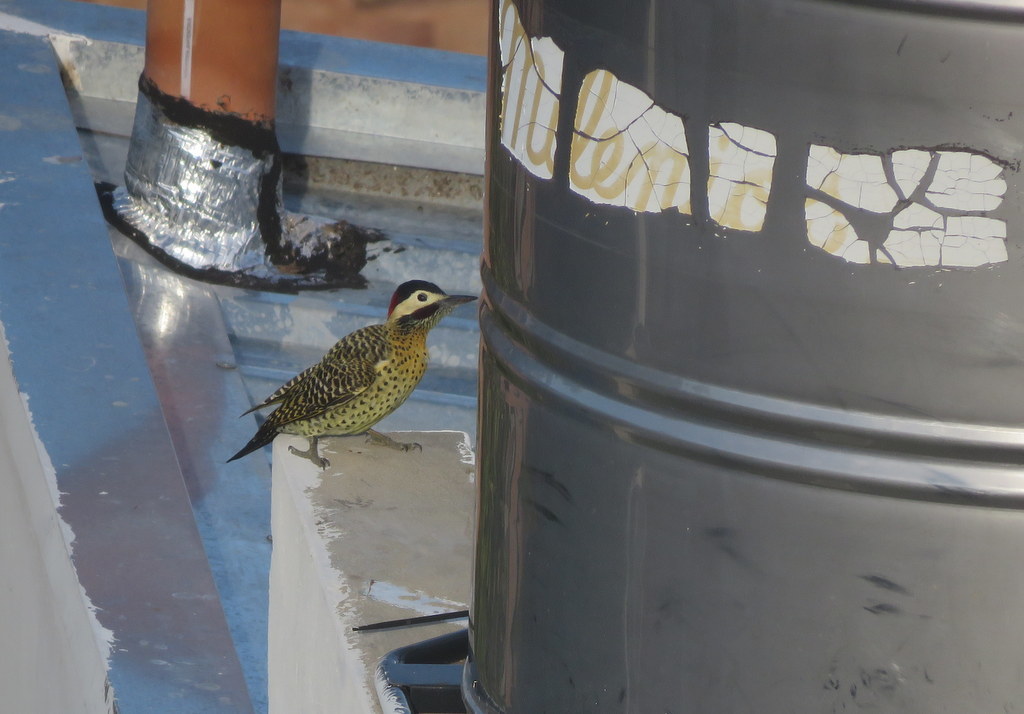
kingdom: Animalia
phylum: Chordata
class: Aves
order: Piciformes
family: Picidae
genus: Colaptes
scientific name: Colaptes melanochloros
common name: Green-barred woodpecker
